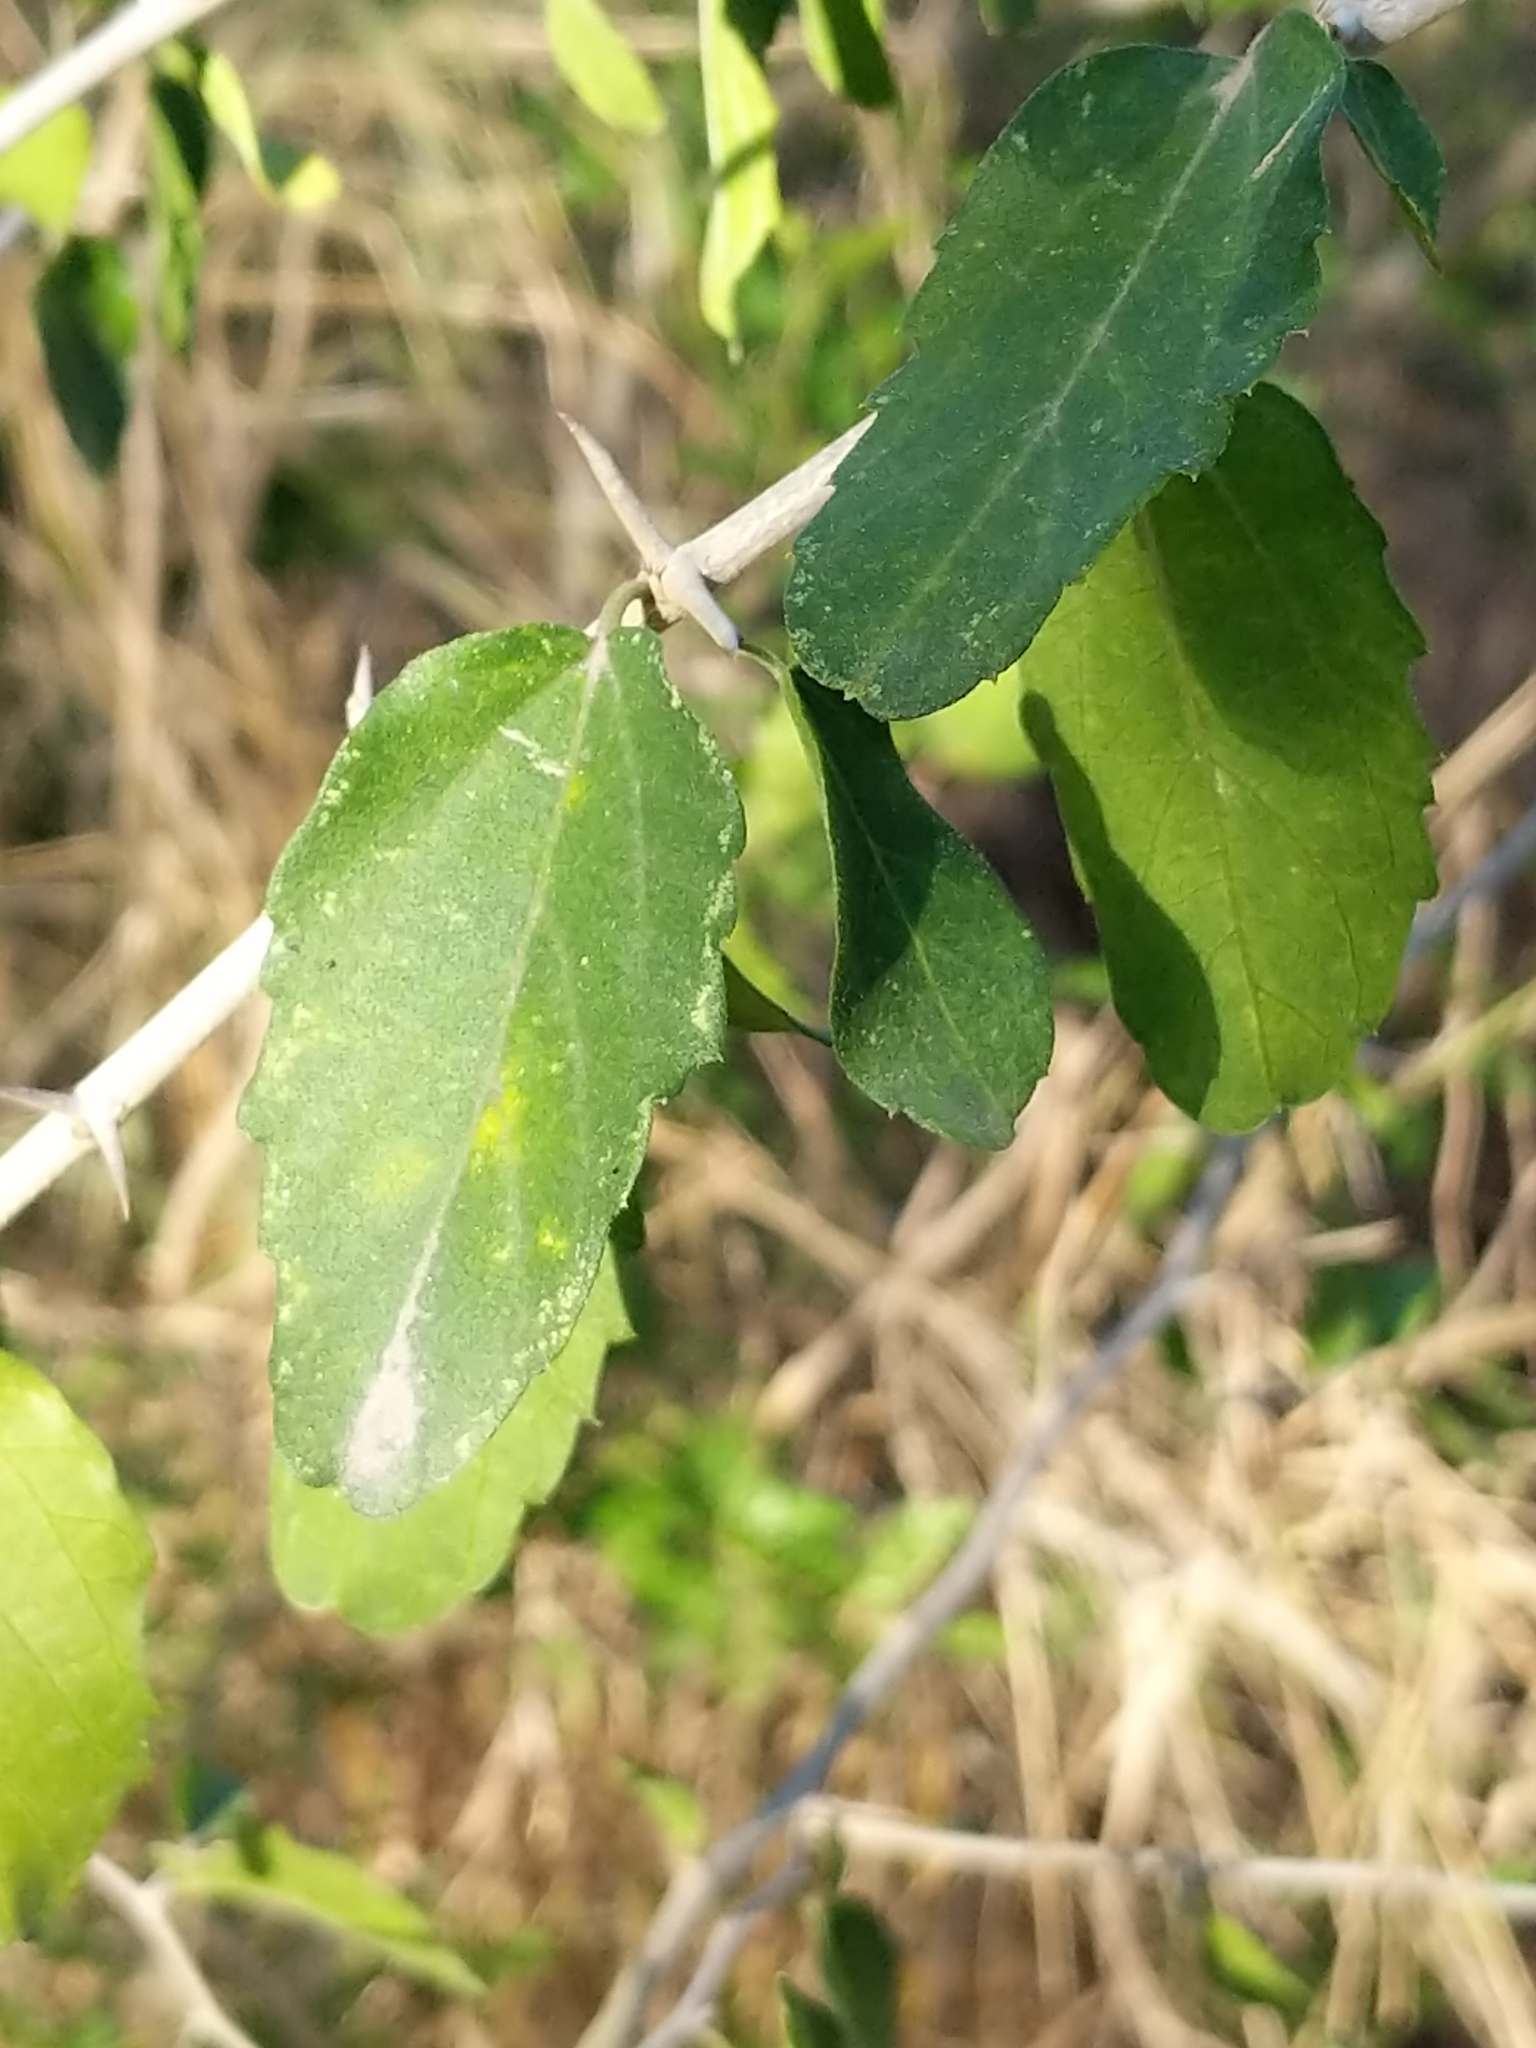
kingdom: Plantae
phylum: Tracheophyta
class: Magnoliopsida
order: Rosales
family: Cannabaceae
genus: Celtis
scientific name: Celtis pallida
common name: Desert hackberry
